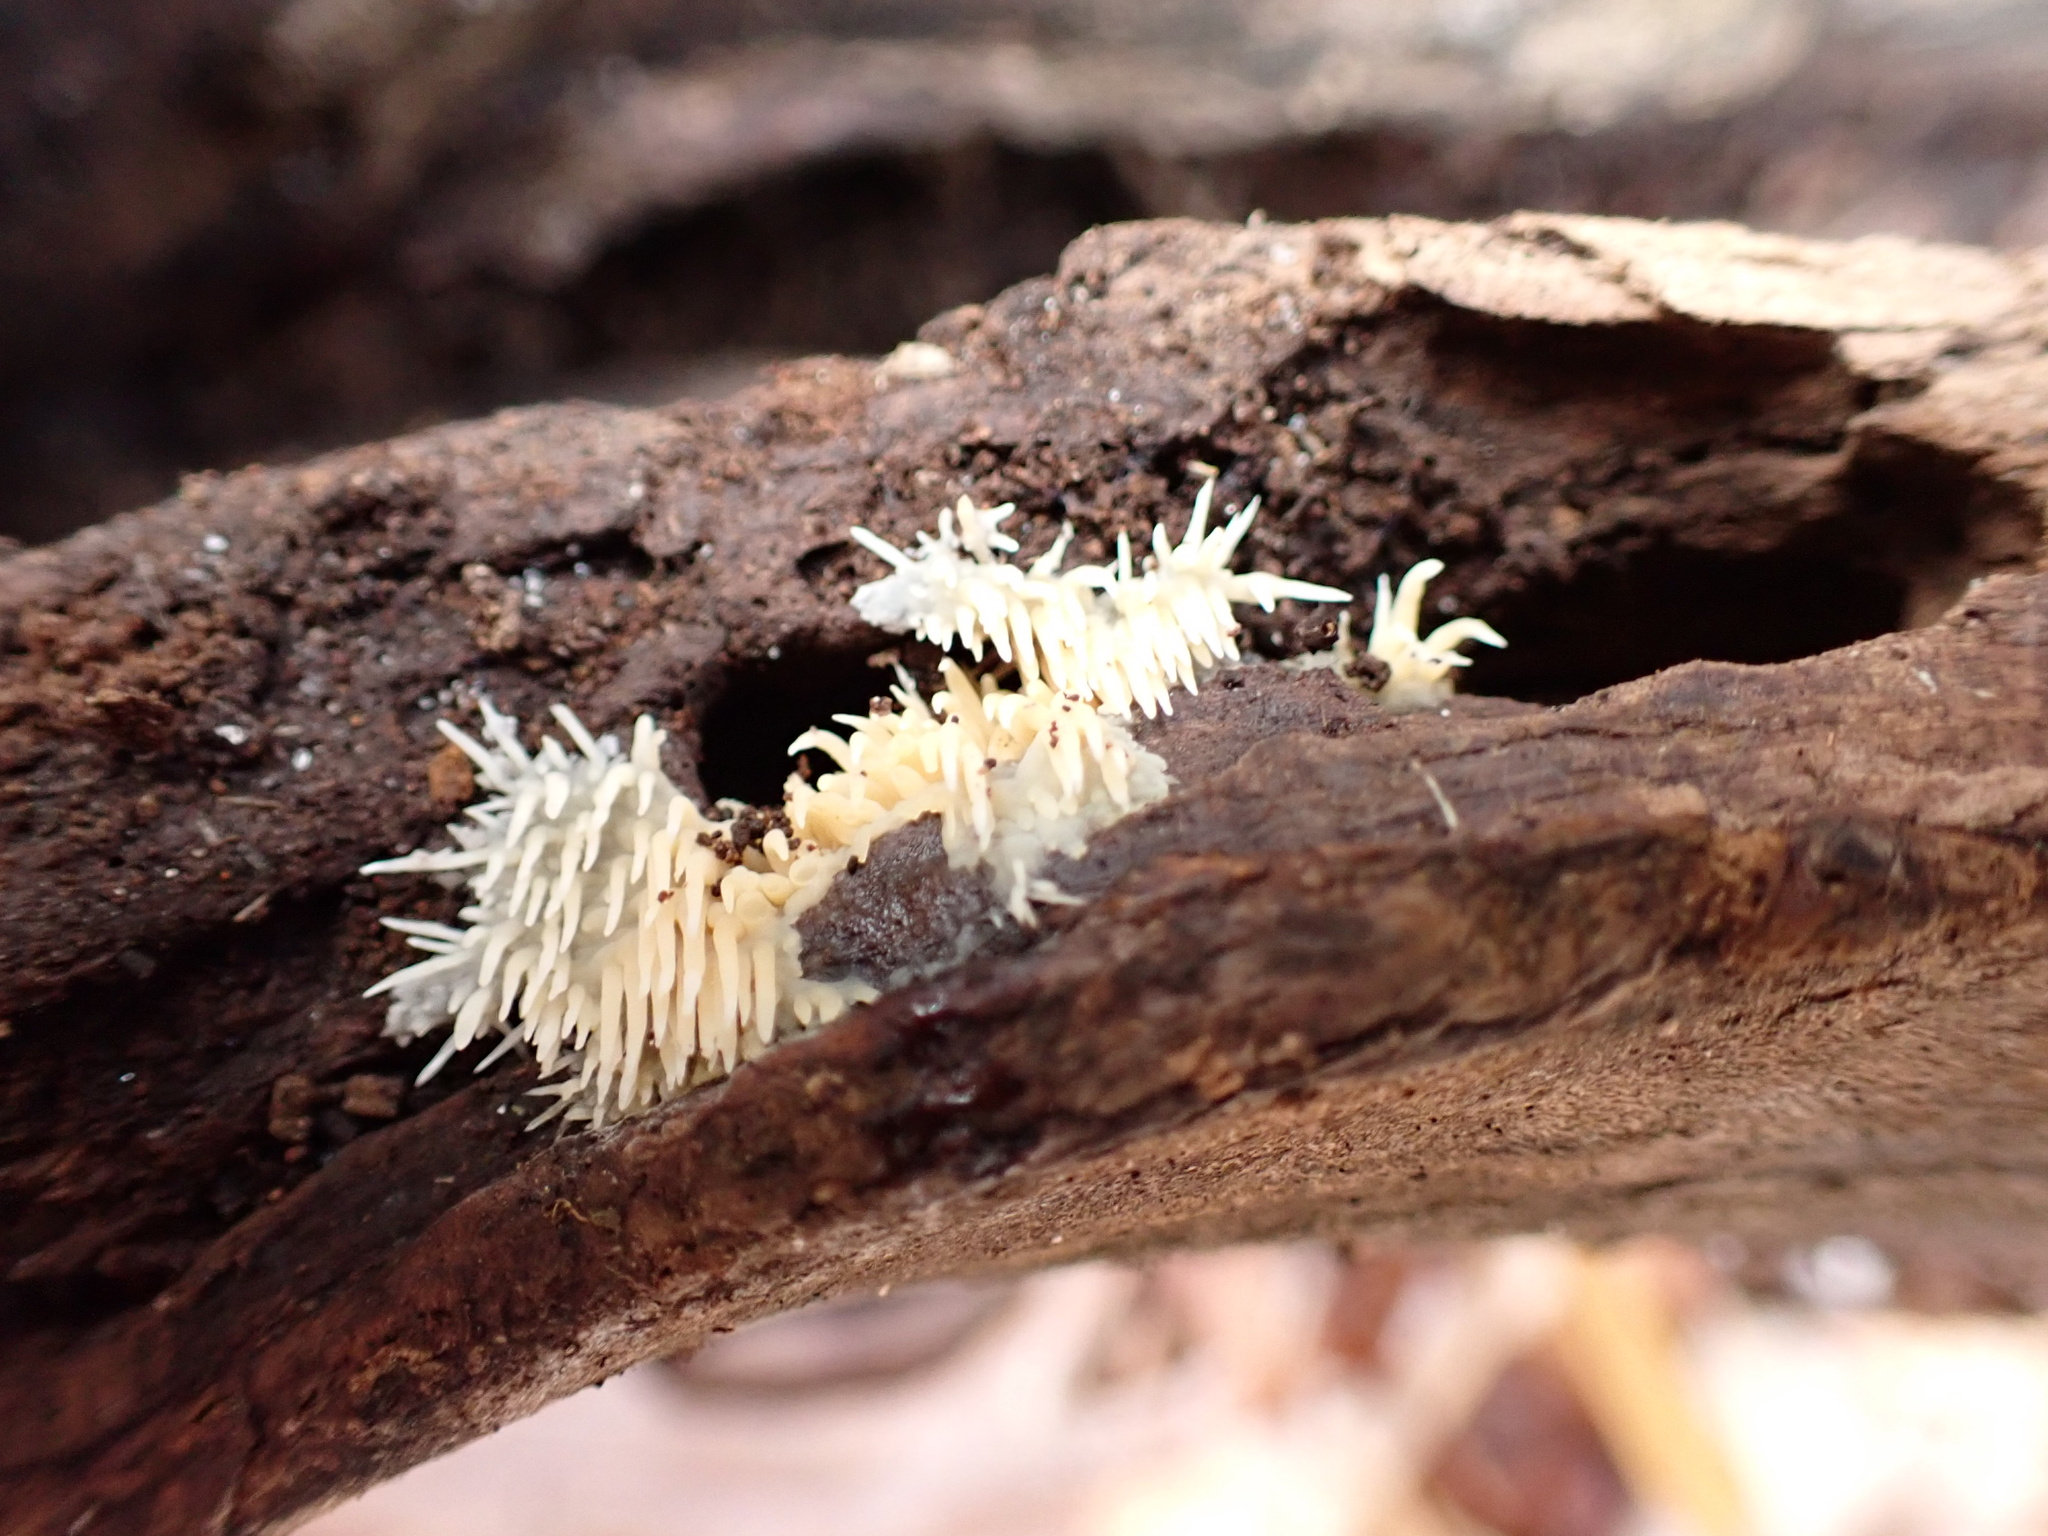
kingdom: Fungi
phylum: Basidiomycota
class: Agaricomycetes
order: Agaricales
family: Radulomycetaceae
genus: Radulomyces
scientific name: Radulomyces copelandii
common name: Asian beauty
